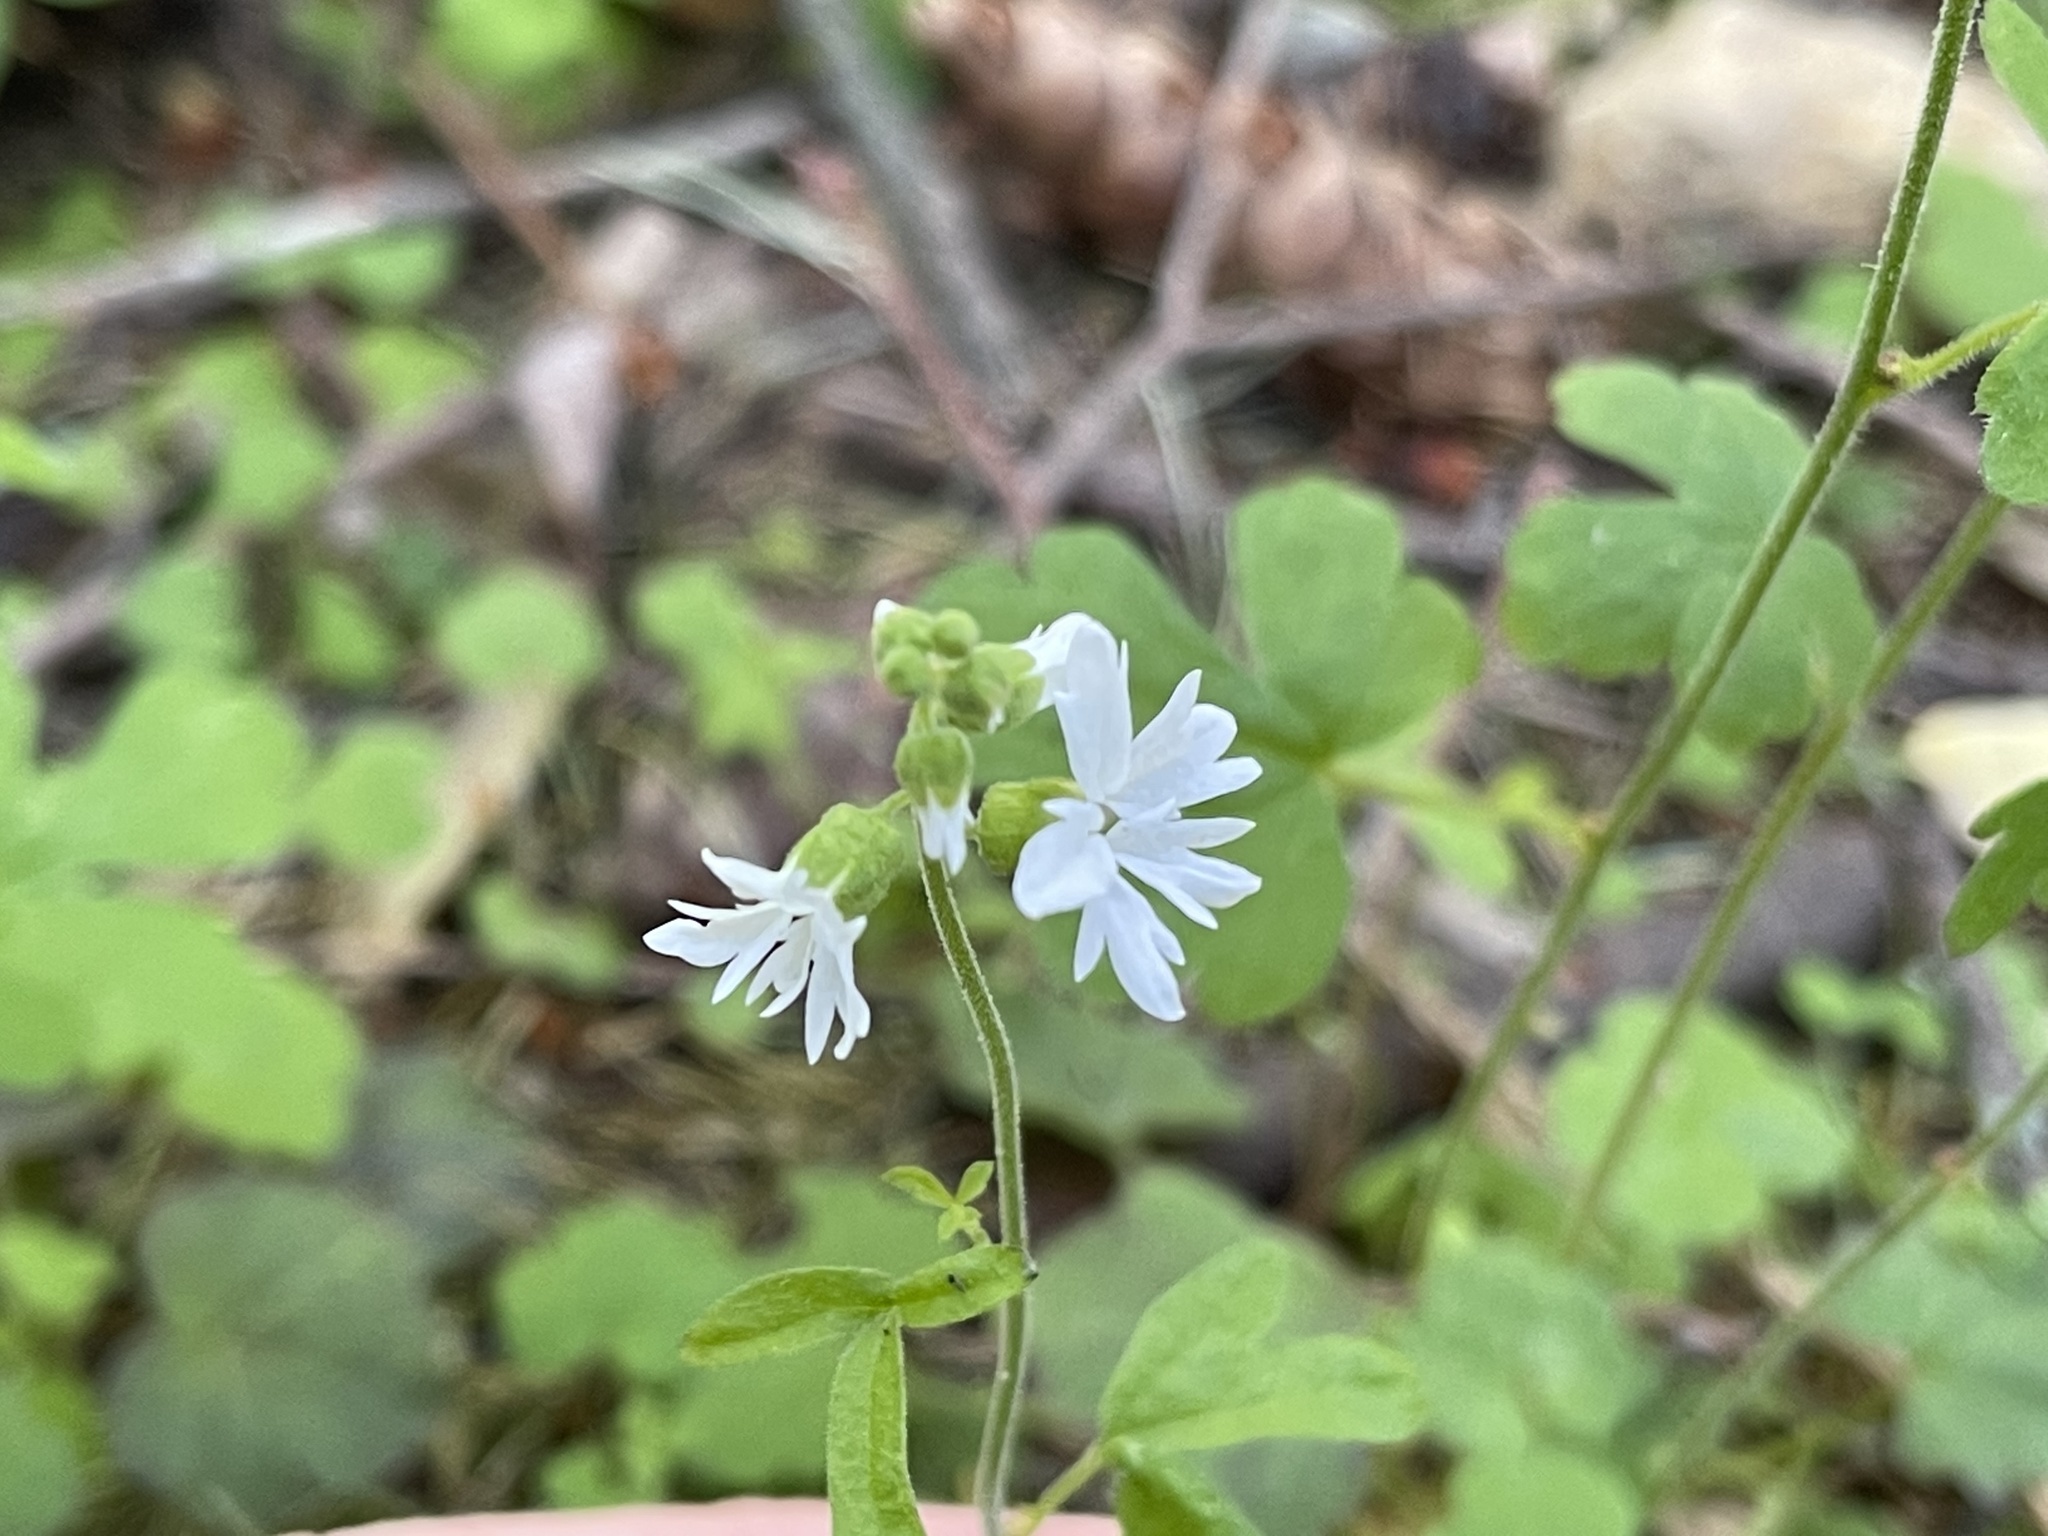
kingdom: Plantae
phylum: Tracheophyta
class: Magnoliopsida
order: Saxifragales
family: Saxifragaceae
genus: Lithophragma
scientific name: Lithophragma heterophyllum
